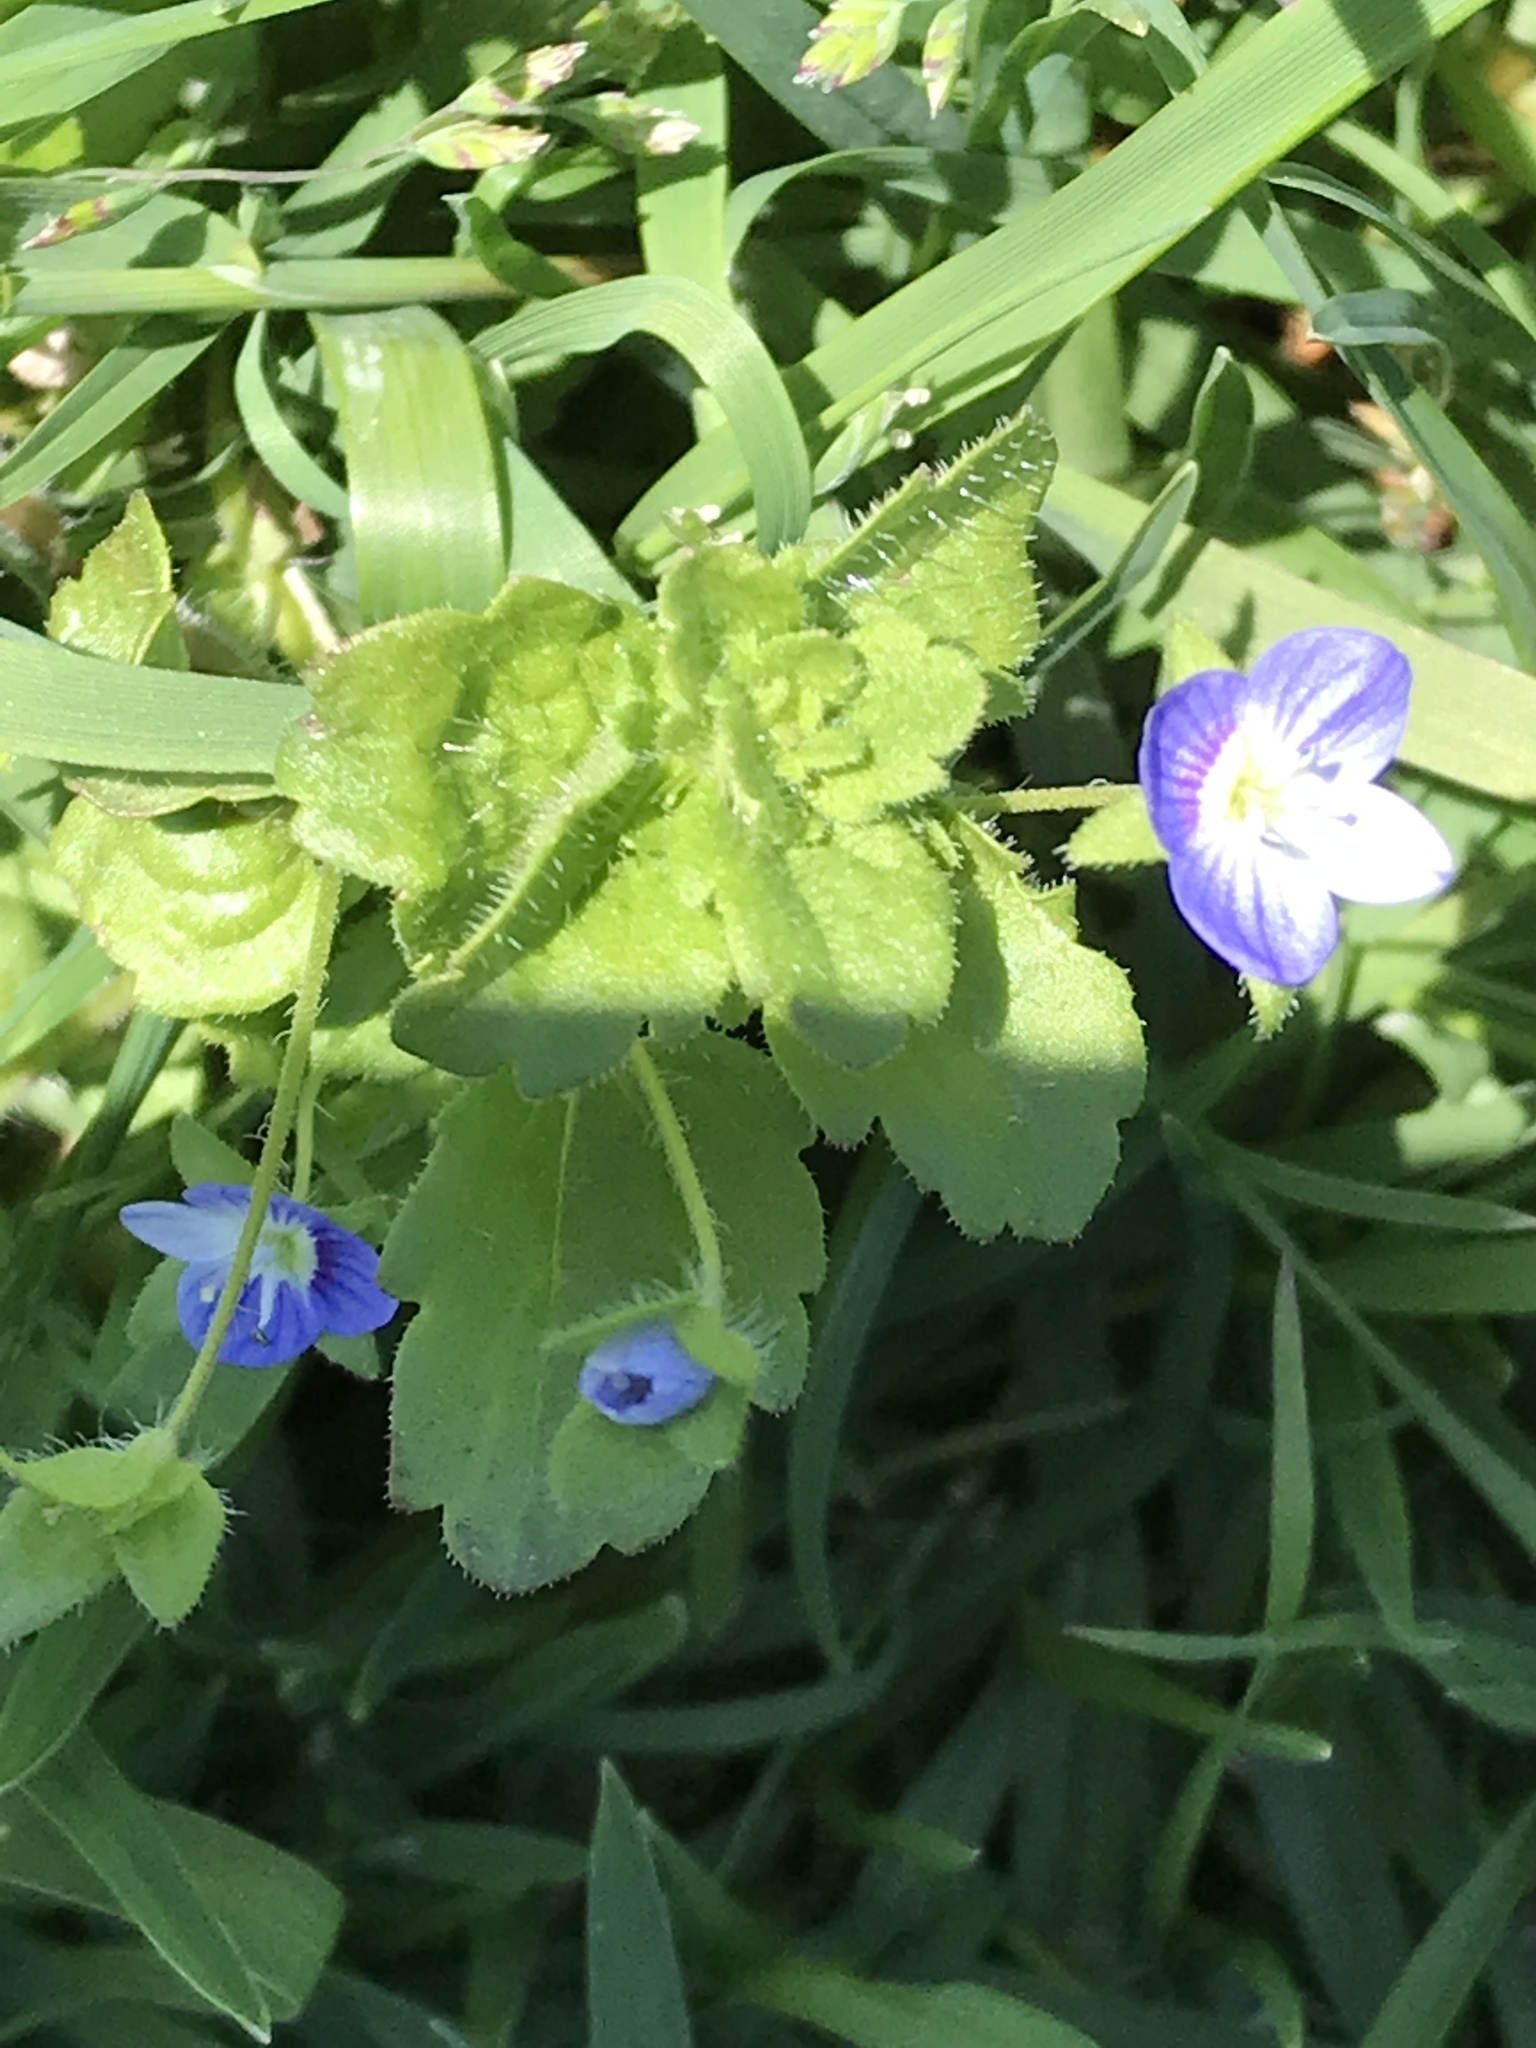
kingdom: Plantae
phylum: Tracheophyta
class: Magnoliopsida
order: Lamiales
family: Plantaginaceae
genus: Veronica
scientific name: Veronica persica
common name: Common field-speedwell
